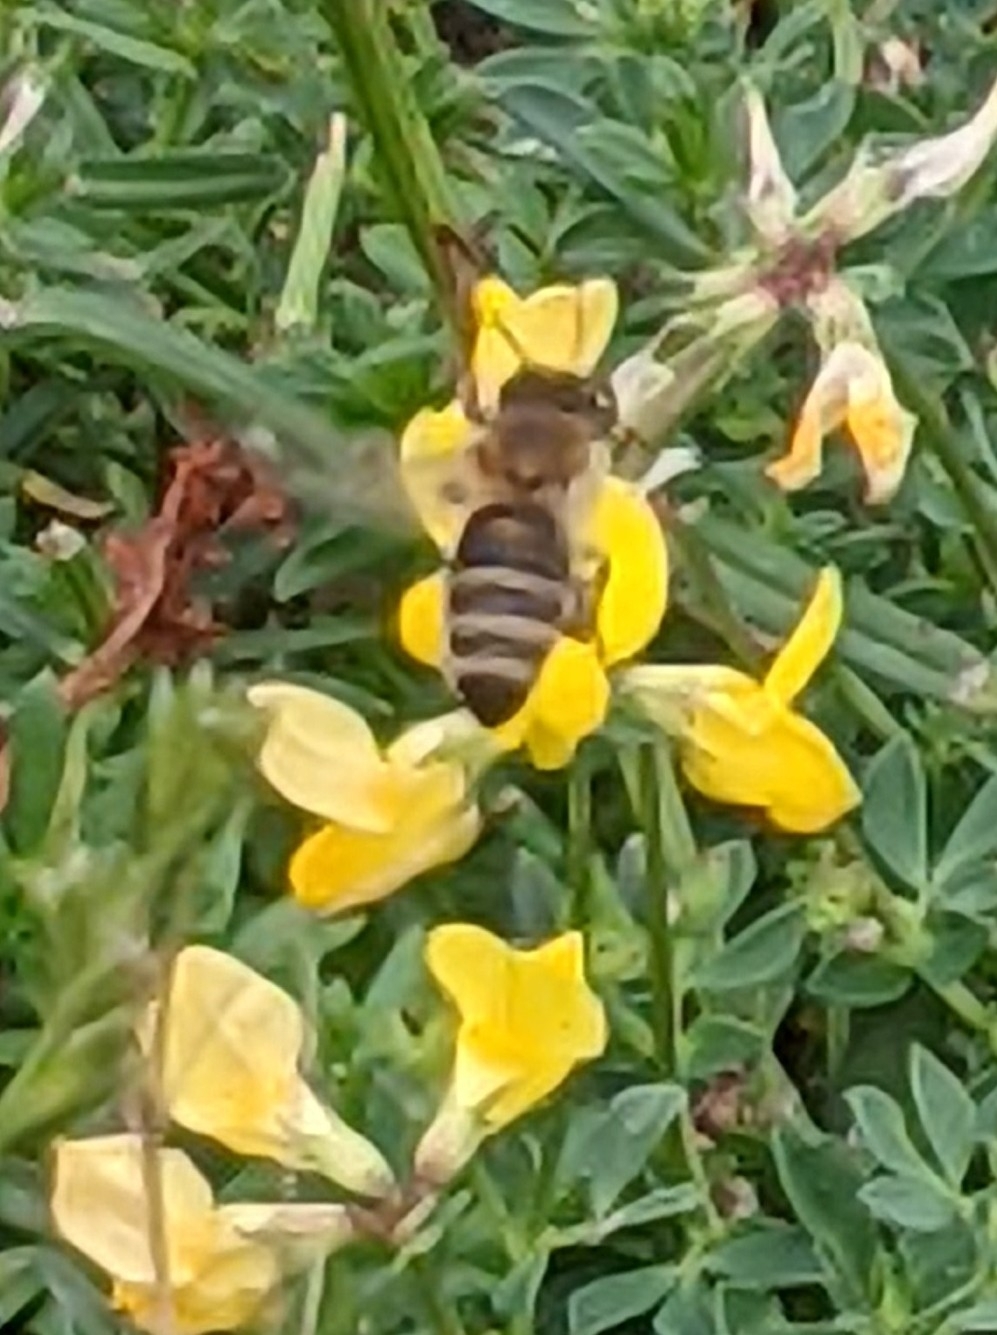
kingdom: Animalia
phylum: Arthropoda
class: Insecta
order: Hymenoptera
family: Apidae
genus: Apis
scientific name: Apis mellifera
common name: Honey bee
